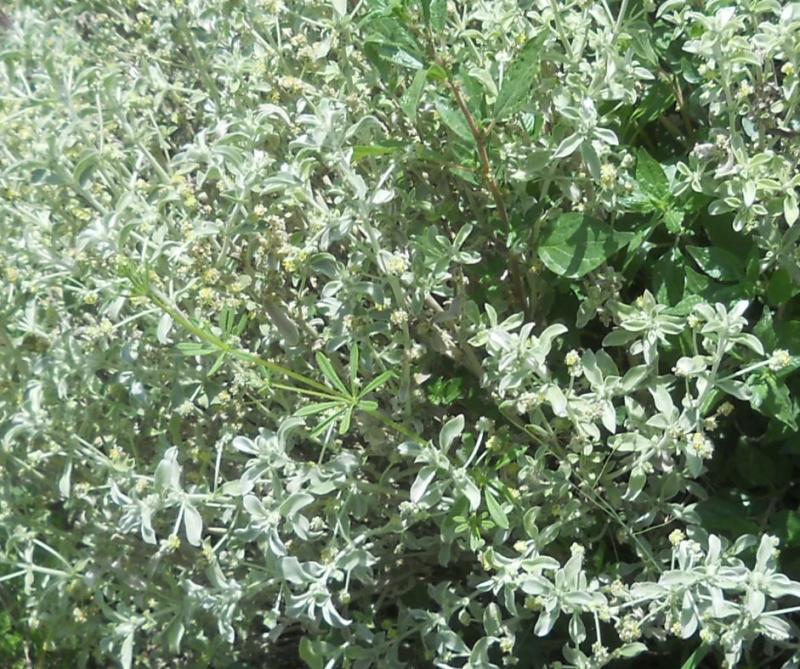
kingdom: Plantae
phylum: Tracheophyta
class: Magnoliopsida
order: Malpighiales
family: Euphorbiaceae
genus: Mercurialis
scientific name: Mercurialis tomentosa
